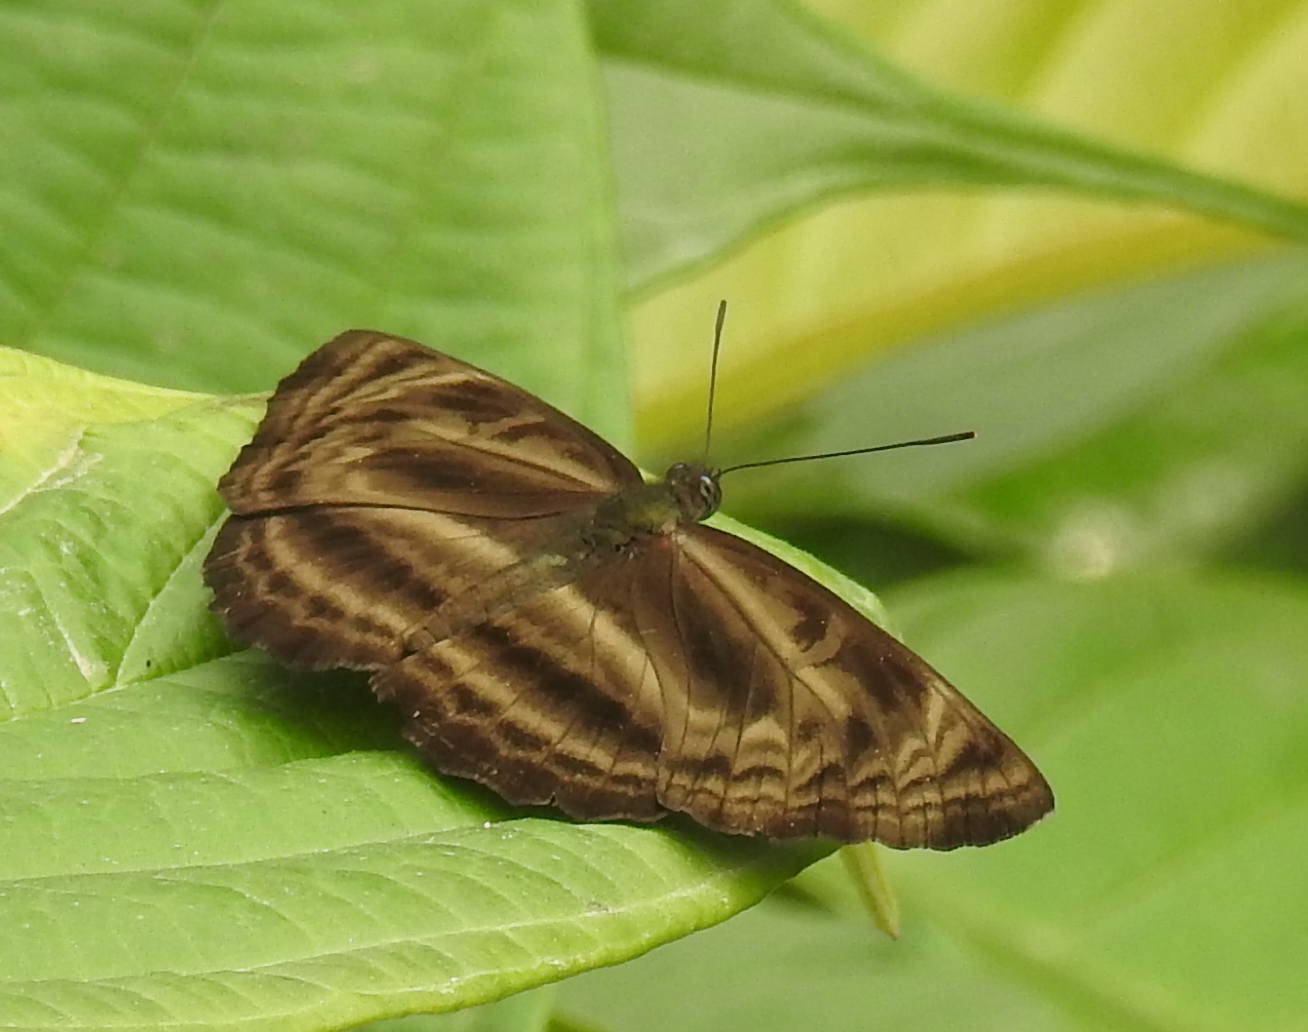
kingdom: Animalia
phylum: Arthropoda
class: Insecta
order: Lepidoptera
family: Nymphalidae
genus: Neptis
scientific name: Neptis harita
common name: Chocolate sailer
